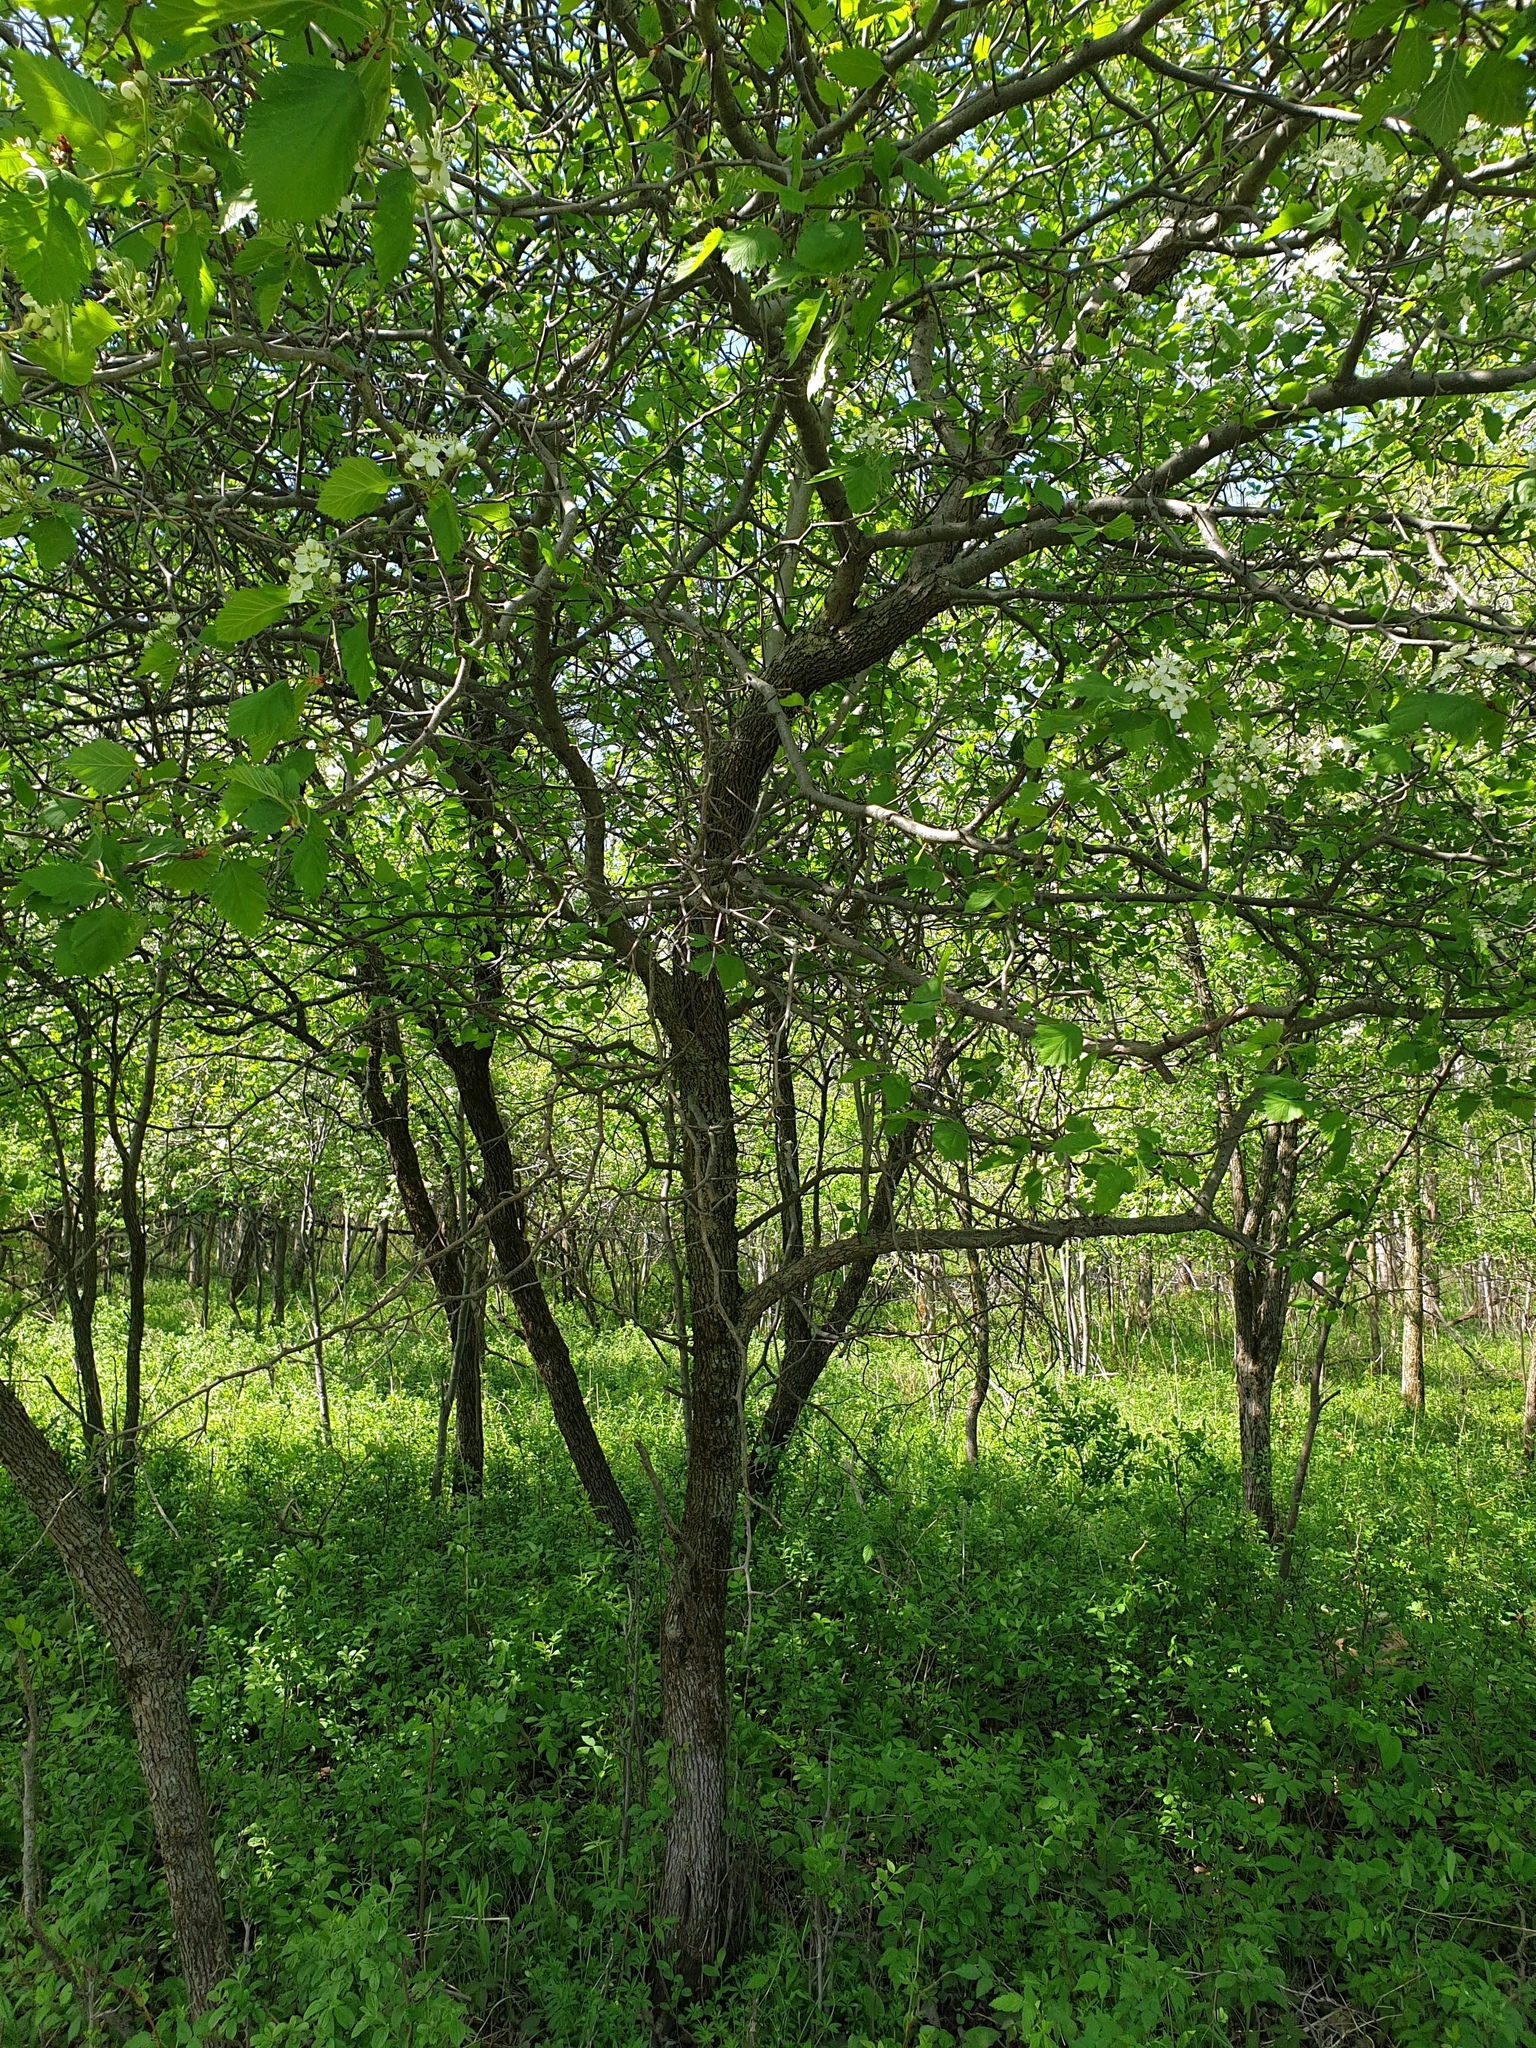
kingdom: Plantae
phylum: Tracheophyta
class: Magnoliopsida
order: Rosales
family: Rosaceae
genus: Crataegus
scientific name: Crataegus submollis
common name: Hairy cockspurthorn
